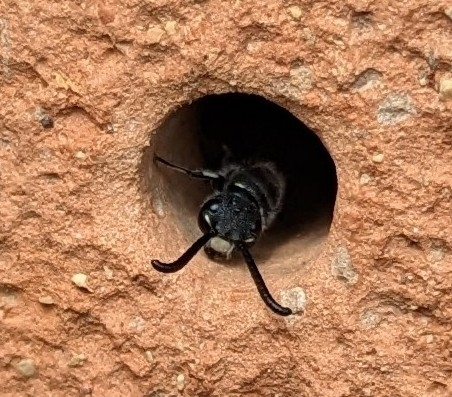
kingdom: Animalia
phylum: Arthropoda
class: Insecta
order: Hymenoptera
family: Sapygidae
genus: Sapyga
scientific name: Sapyga quinquepunctata
